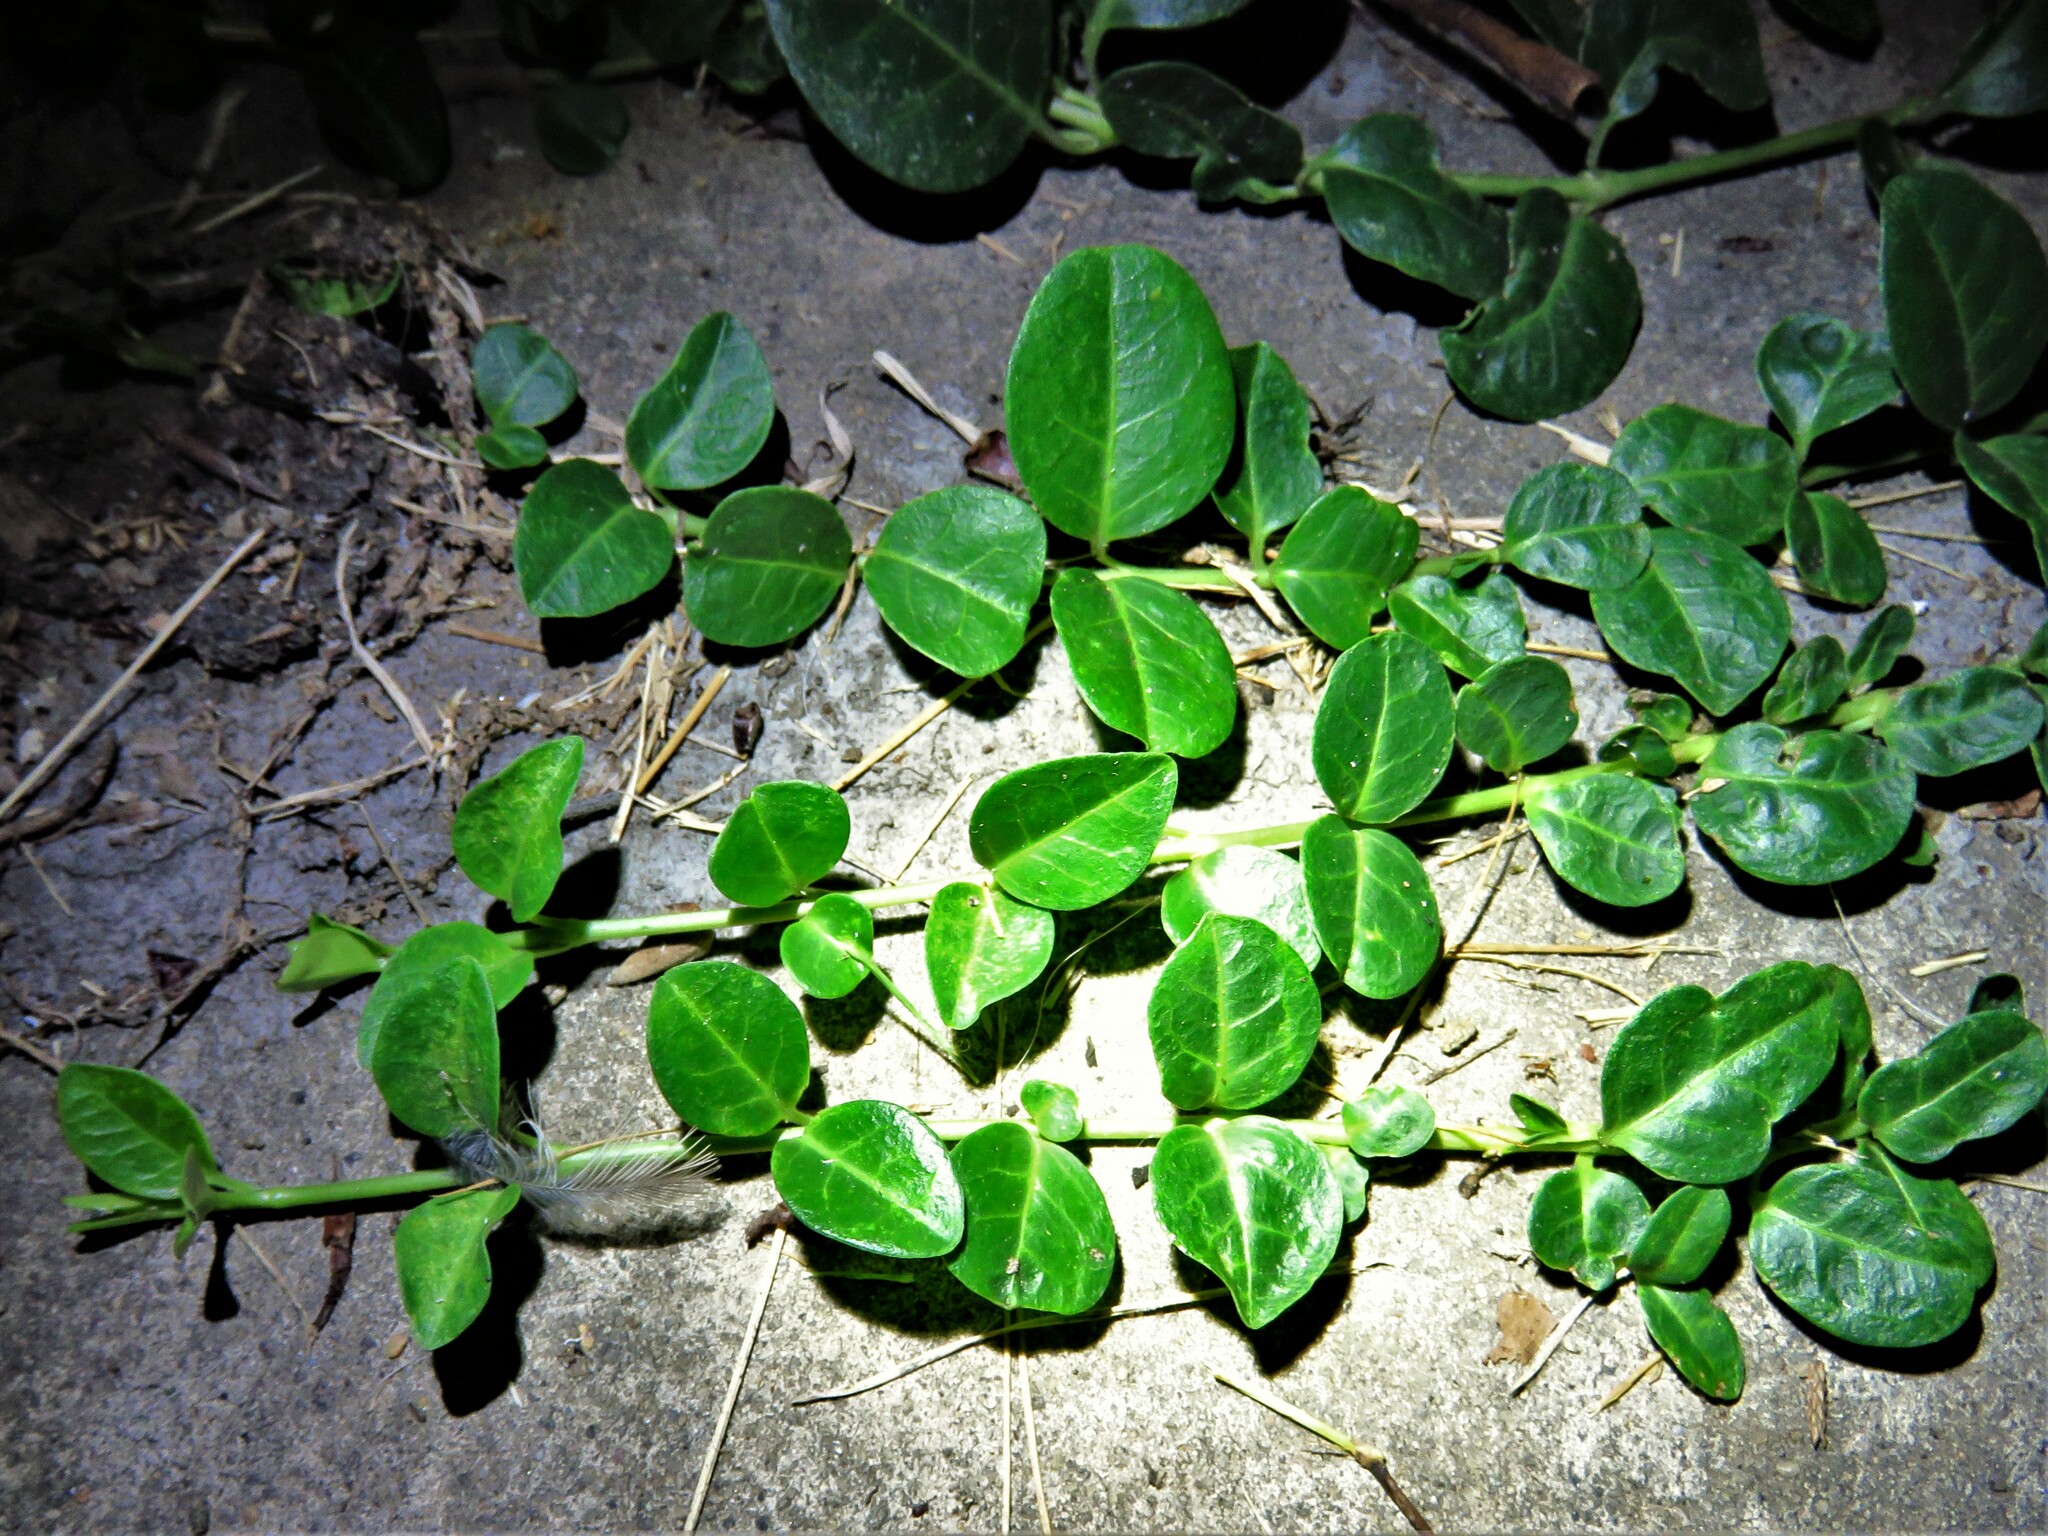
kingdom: Plantae
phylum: Tracheophyta
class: Magnoliopsida
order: Gentianales
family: Rubiaceae
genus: Mitchella
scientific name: Mitchella repens
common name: Partridge-berry
